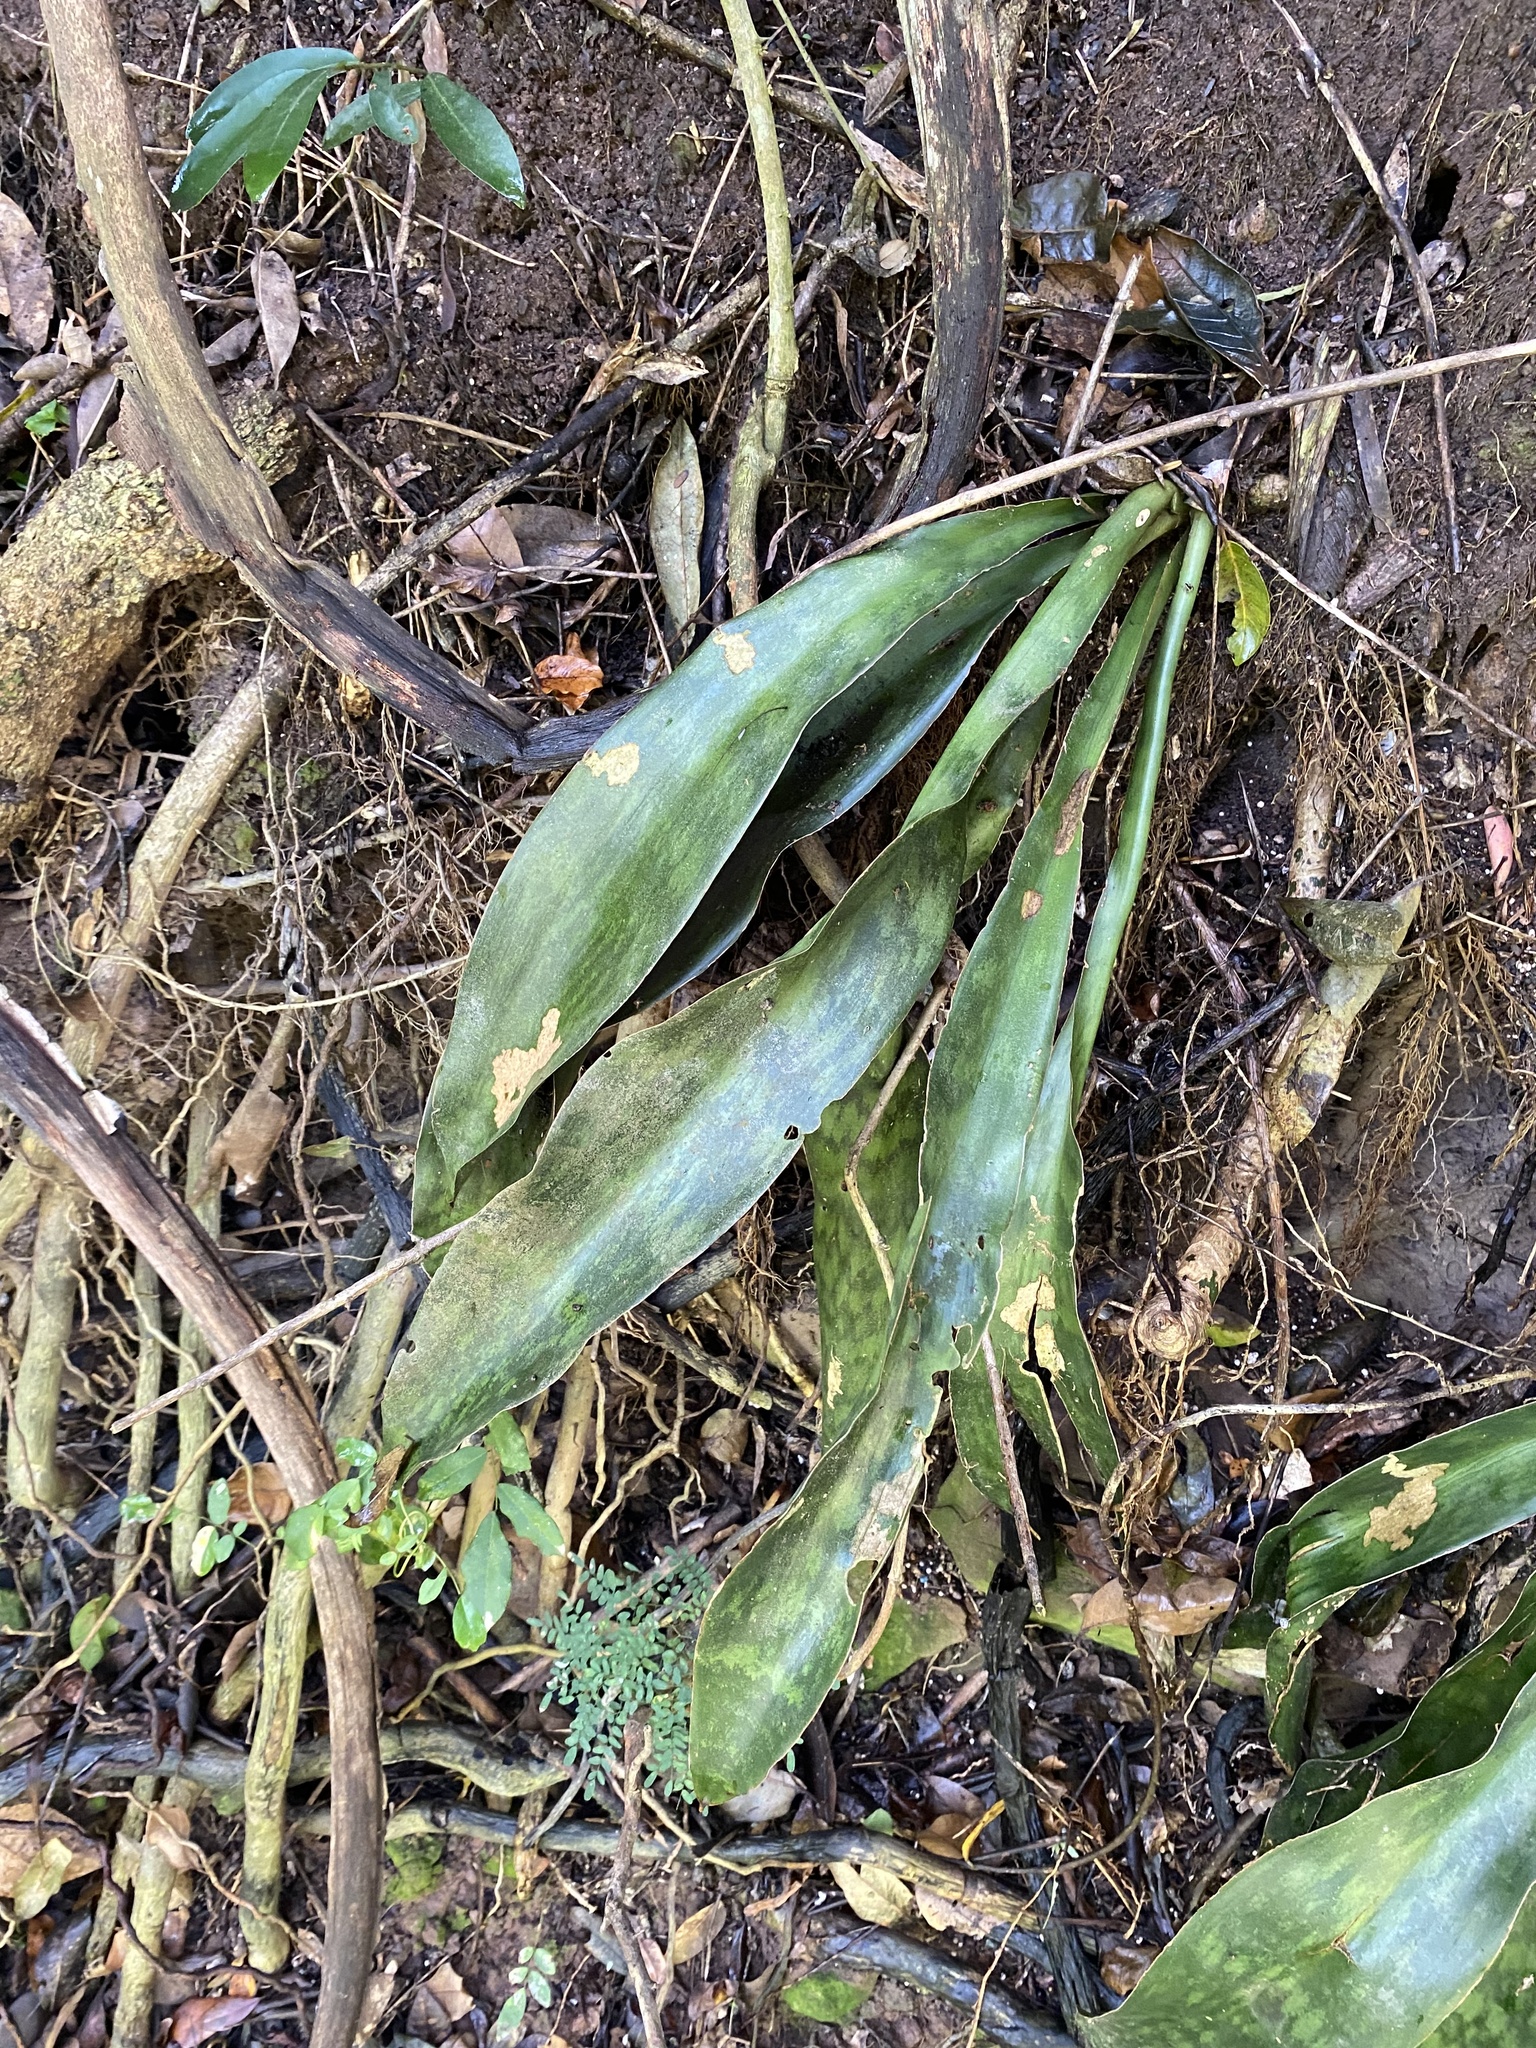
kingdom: Plantae
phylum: Tracheophyta
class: Liliopsida
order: Asparagales
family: Asparagaceae
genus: Dracaena
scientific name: Dracaena hyacinthoides
